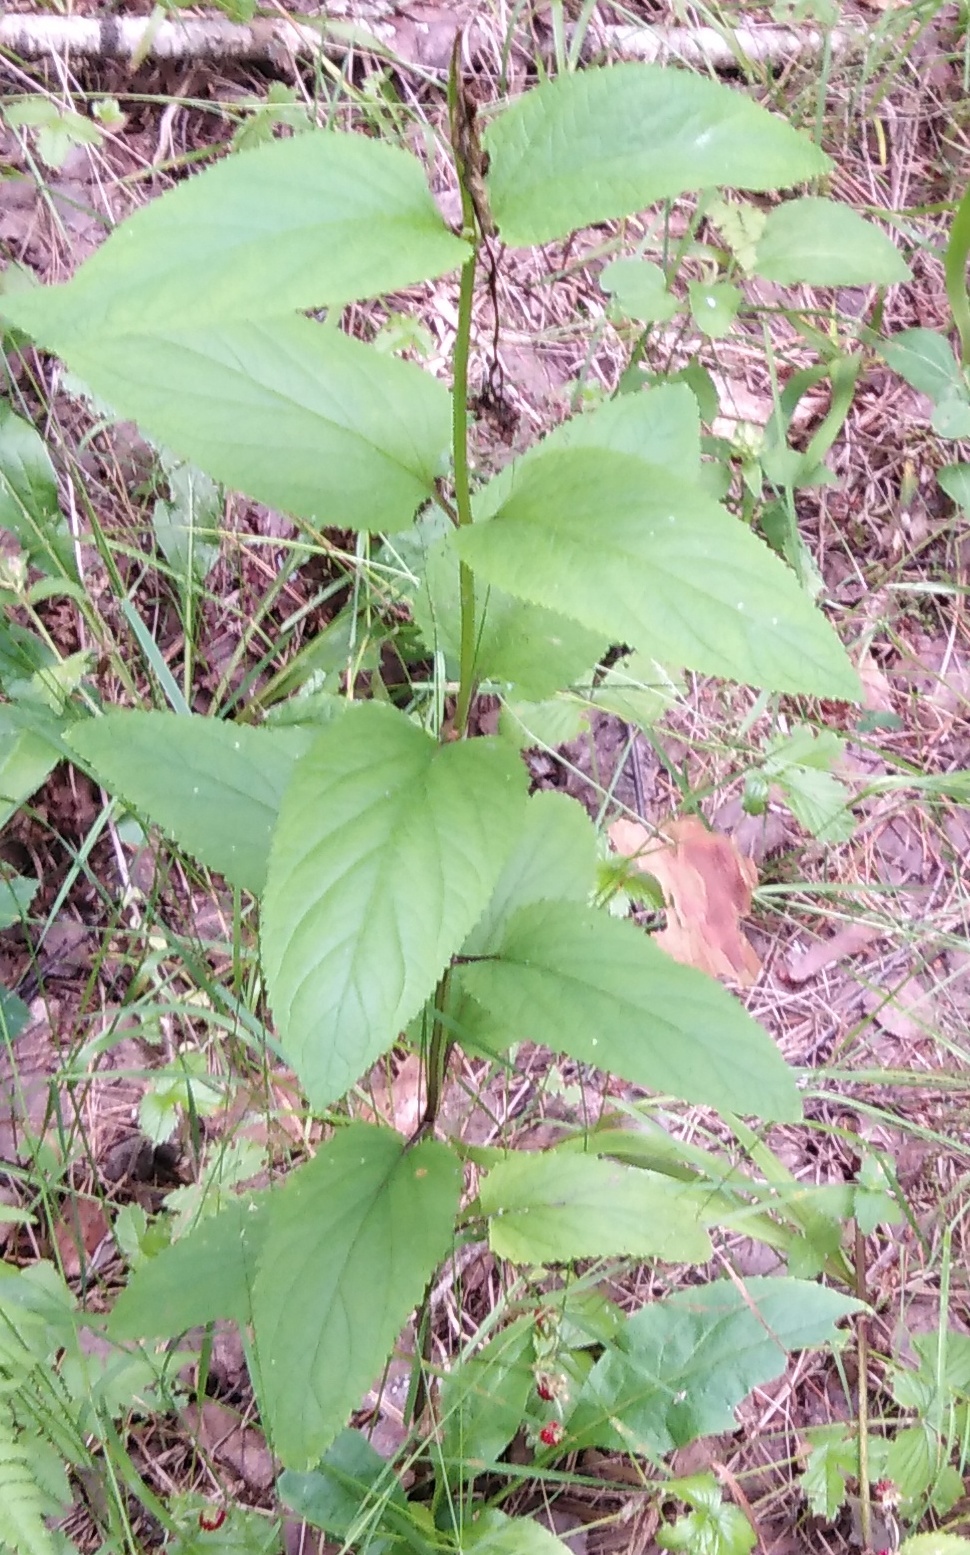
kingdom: Plantae
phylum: Tracheophyta
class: Magnoliopsida
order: Lamiales
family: Scrophulariaceae
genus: Scrophularia
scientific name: Scrophularia nodosa
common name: Common figwort
